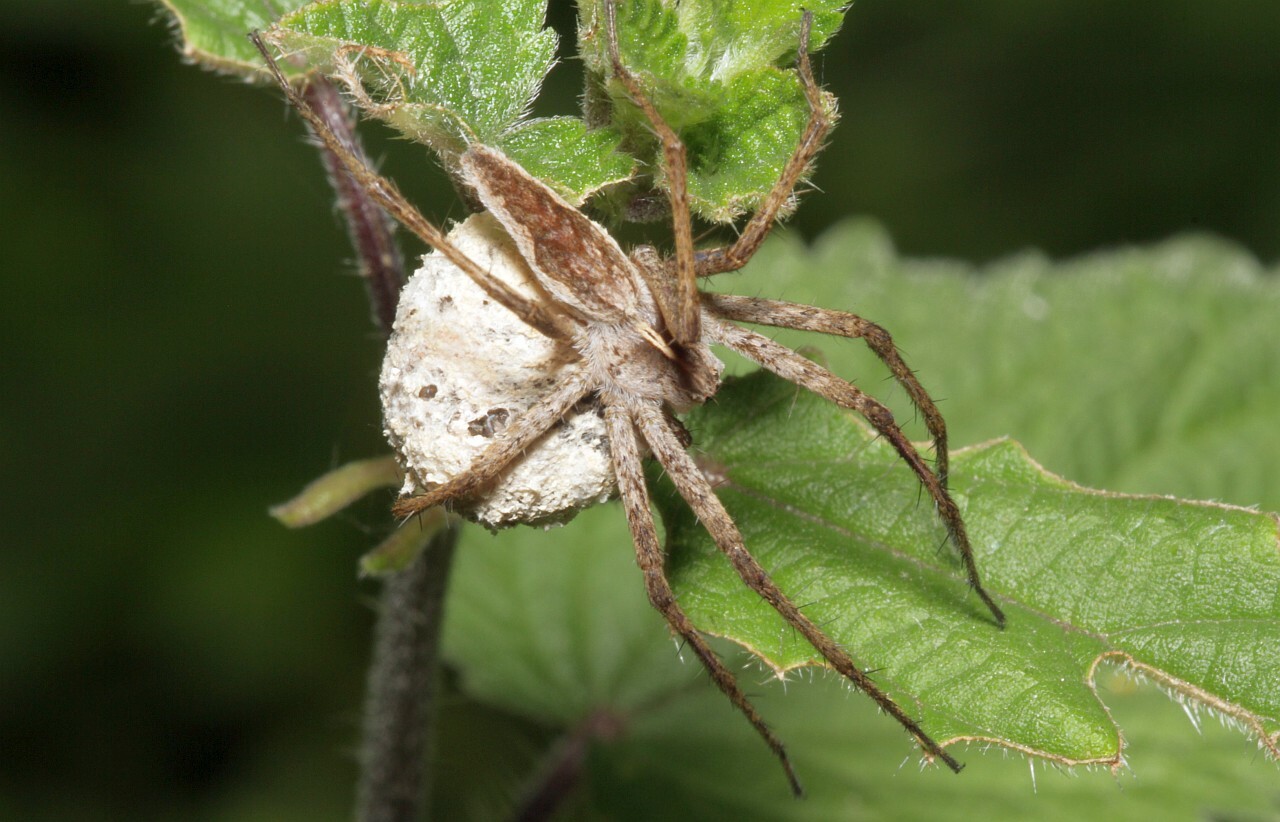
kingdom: Animalia
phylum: Arthropoda
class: Arachnida
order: Araneae
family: Pisauridae
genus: Pisaura
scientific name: Pisaura mirabilis
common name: Tent spider
